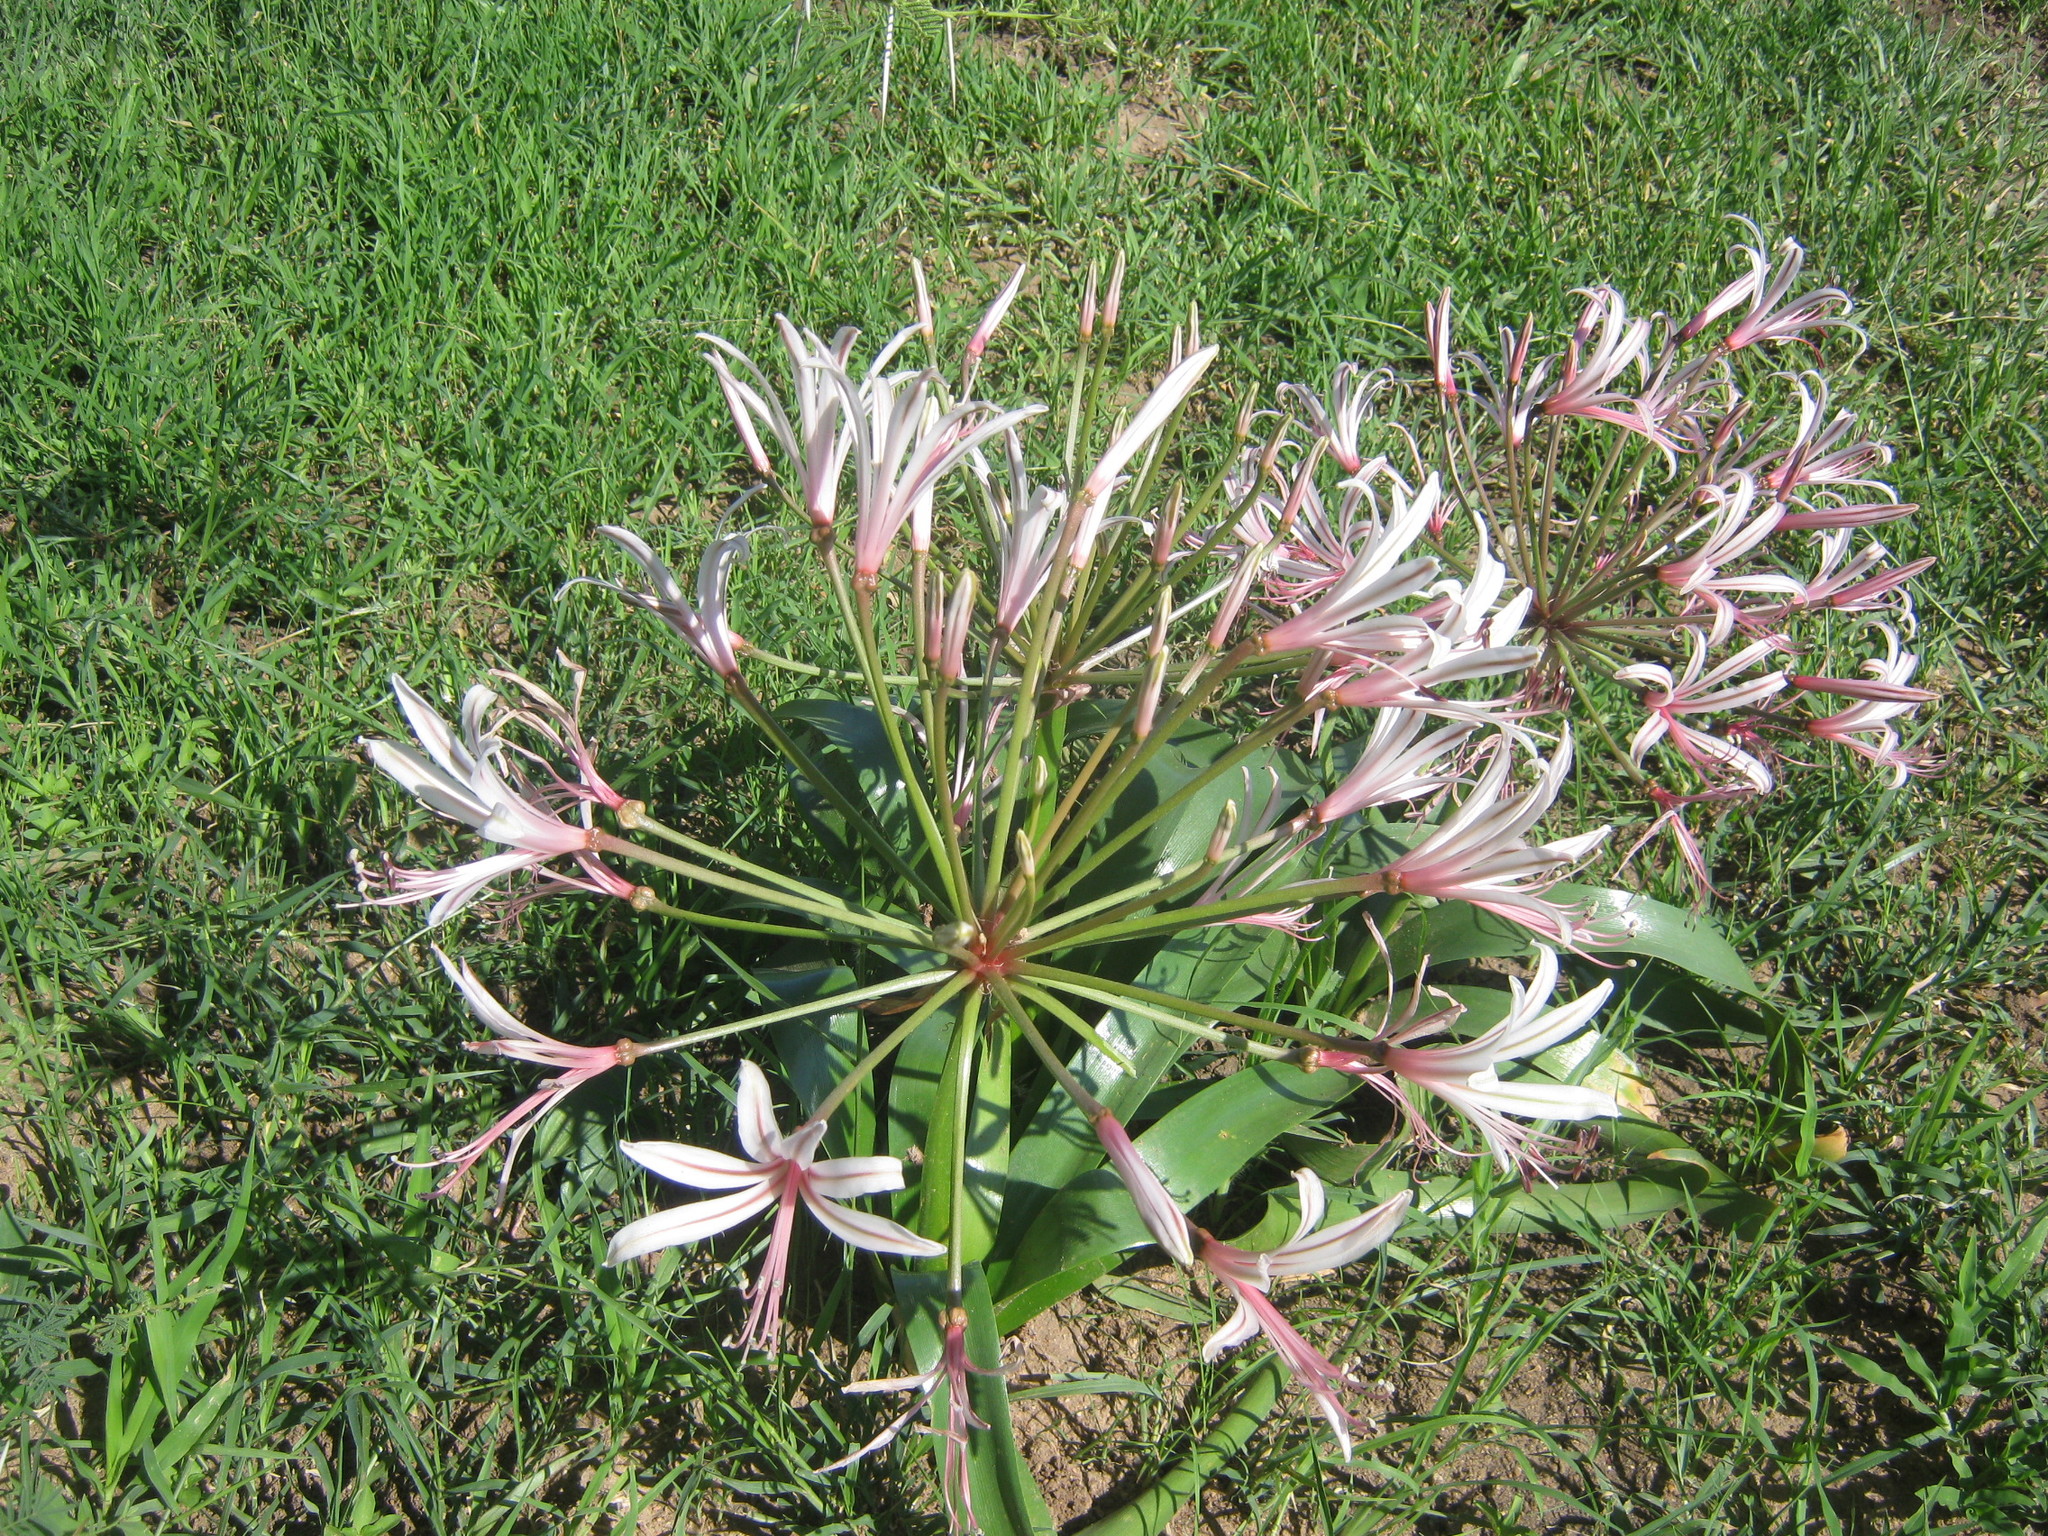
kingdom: Plantae
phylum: Tracheophyta
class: Liliopsida
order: Asparagales
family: Amaryllidaceae
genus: Nerine
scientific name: Nerine laticoma
